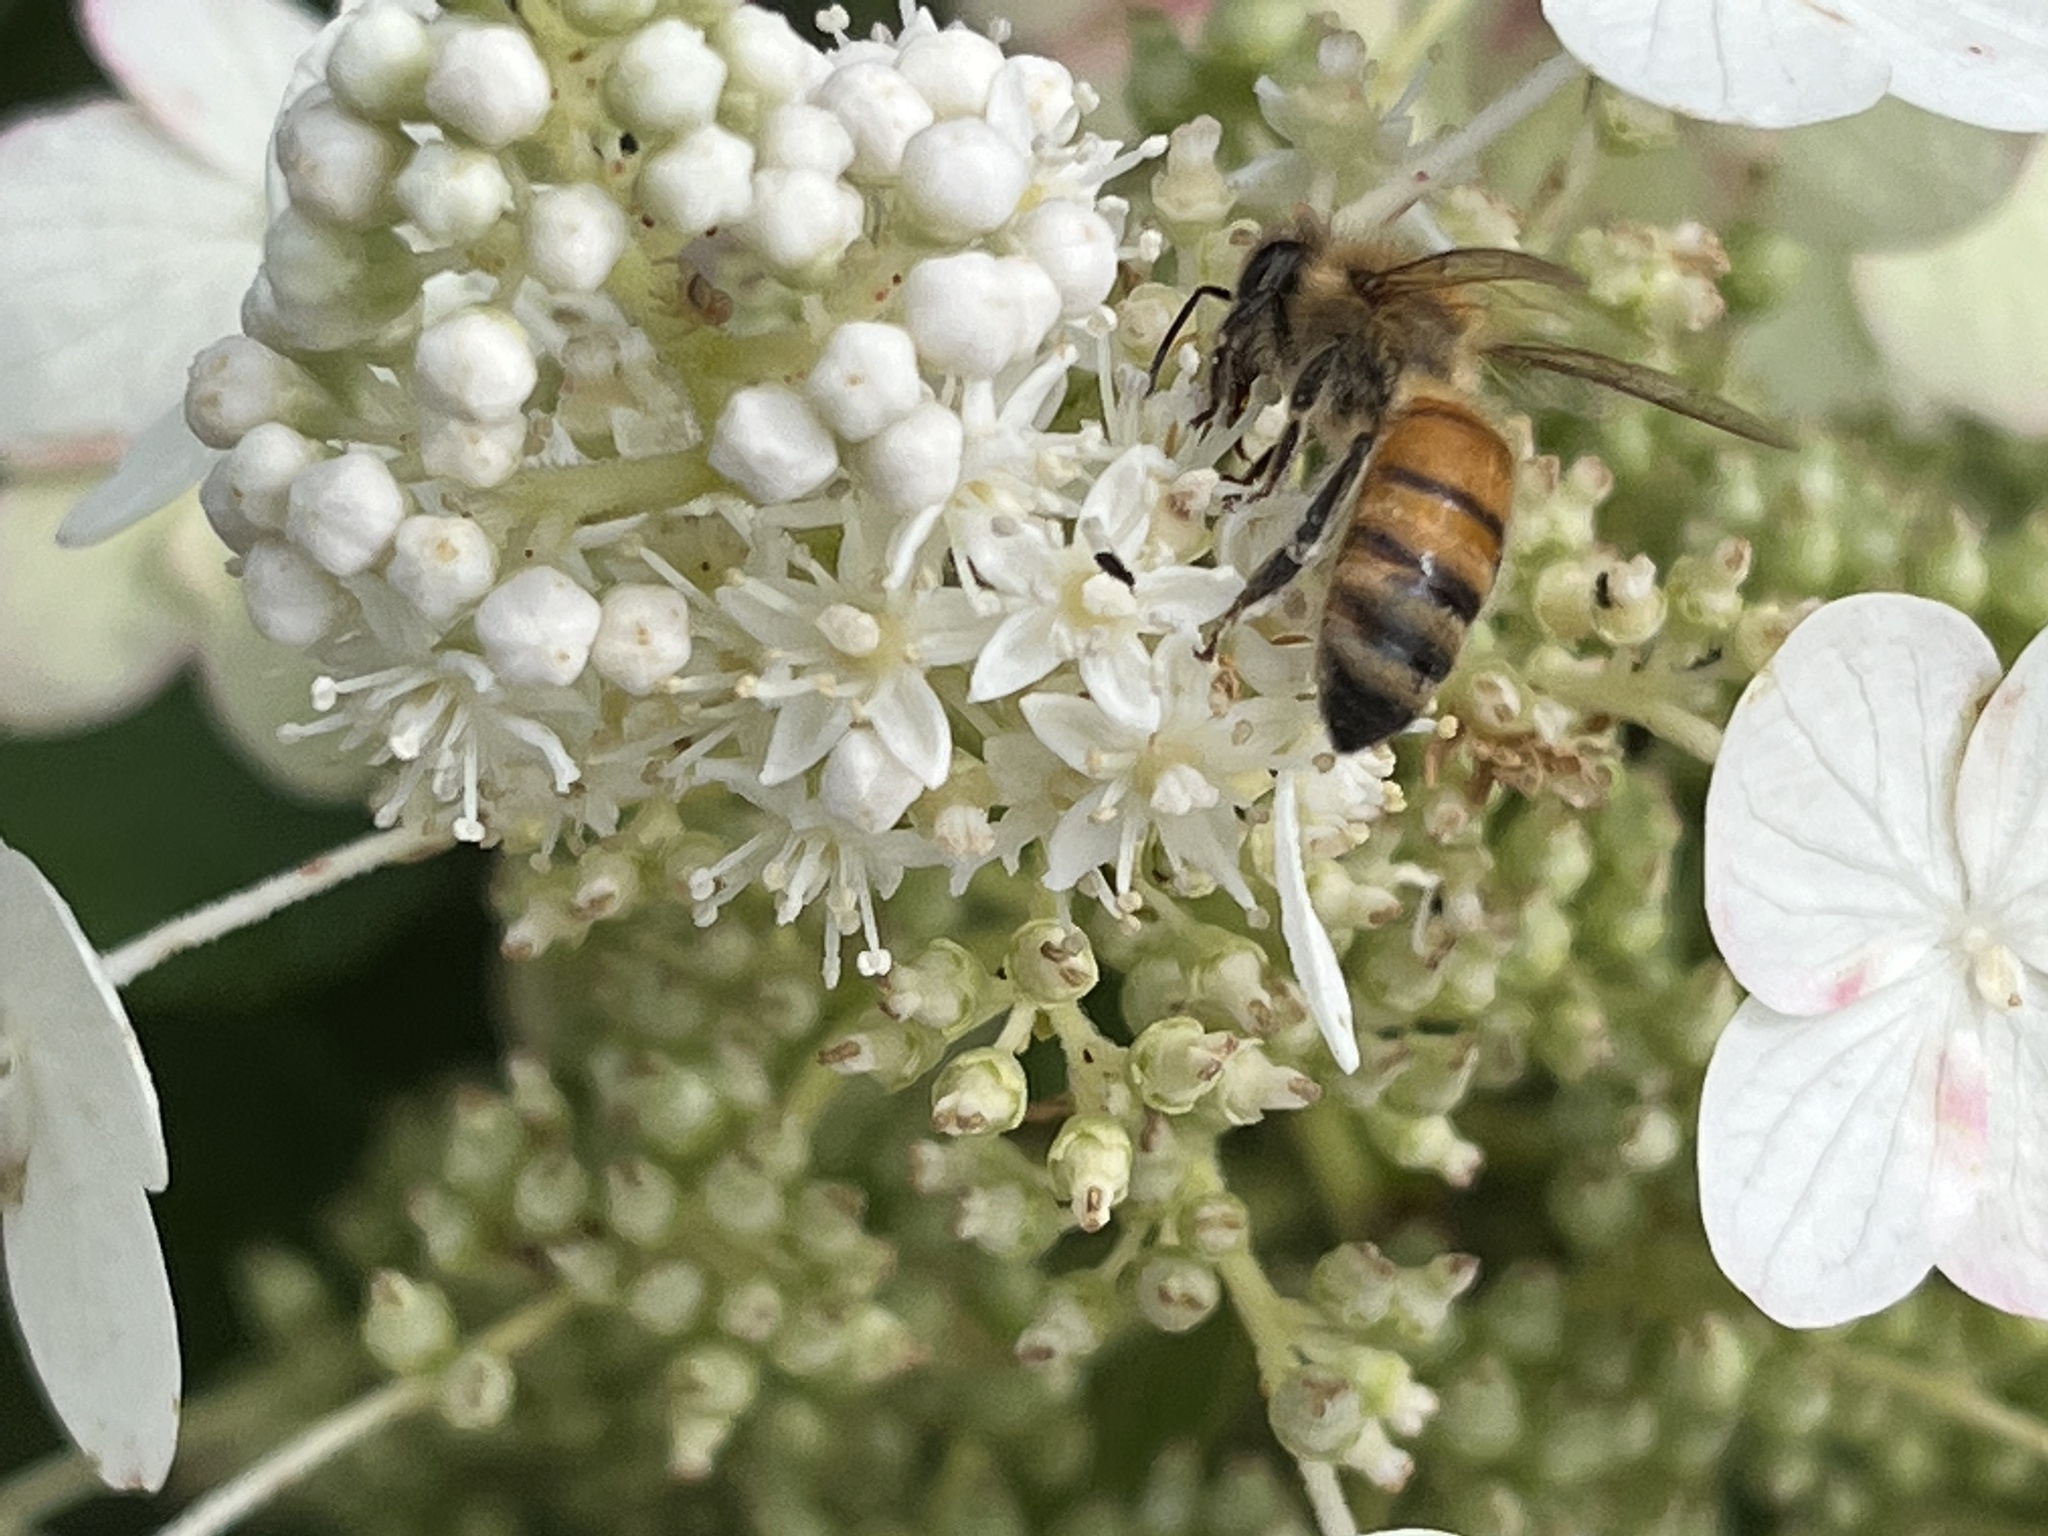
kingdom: Animalia
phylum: Arthropoda
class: Insecta
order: Hymenoptera
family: Apidae
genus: Apis
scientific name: Apis mellifera
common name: Honey bee
